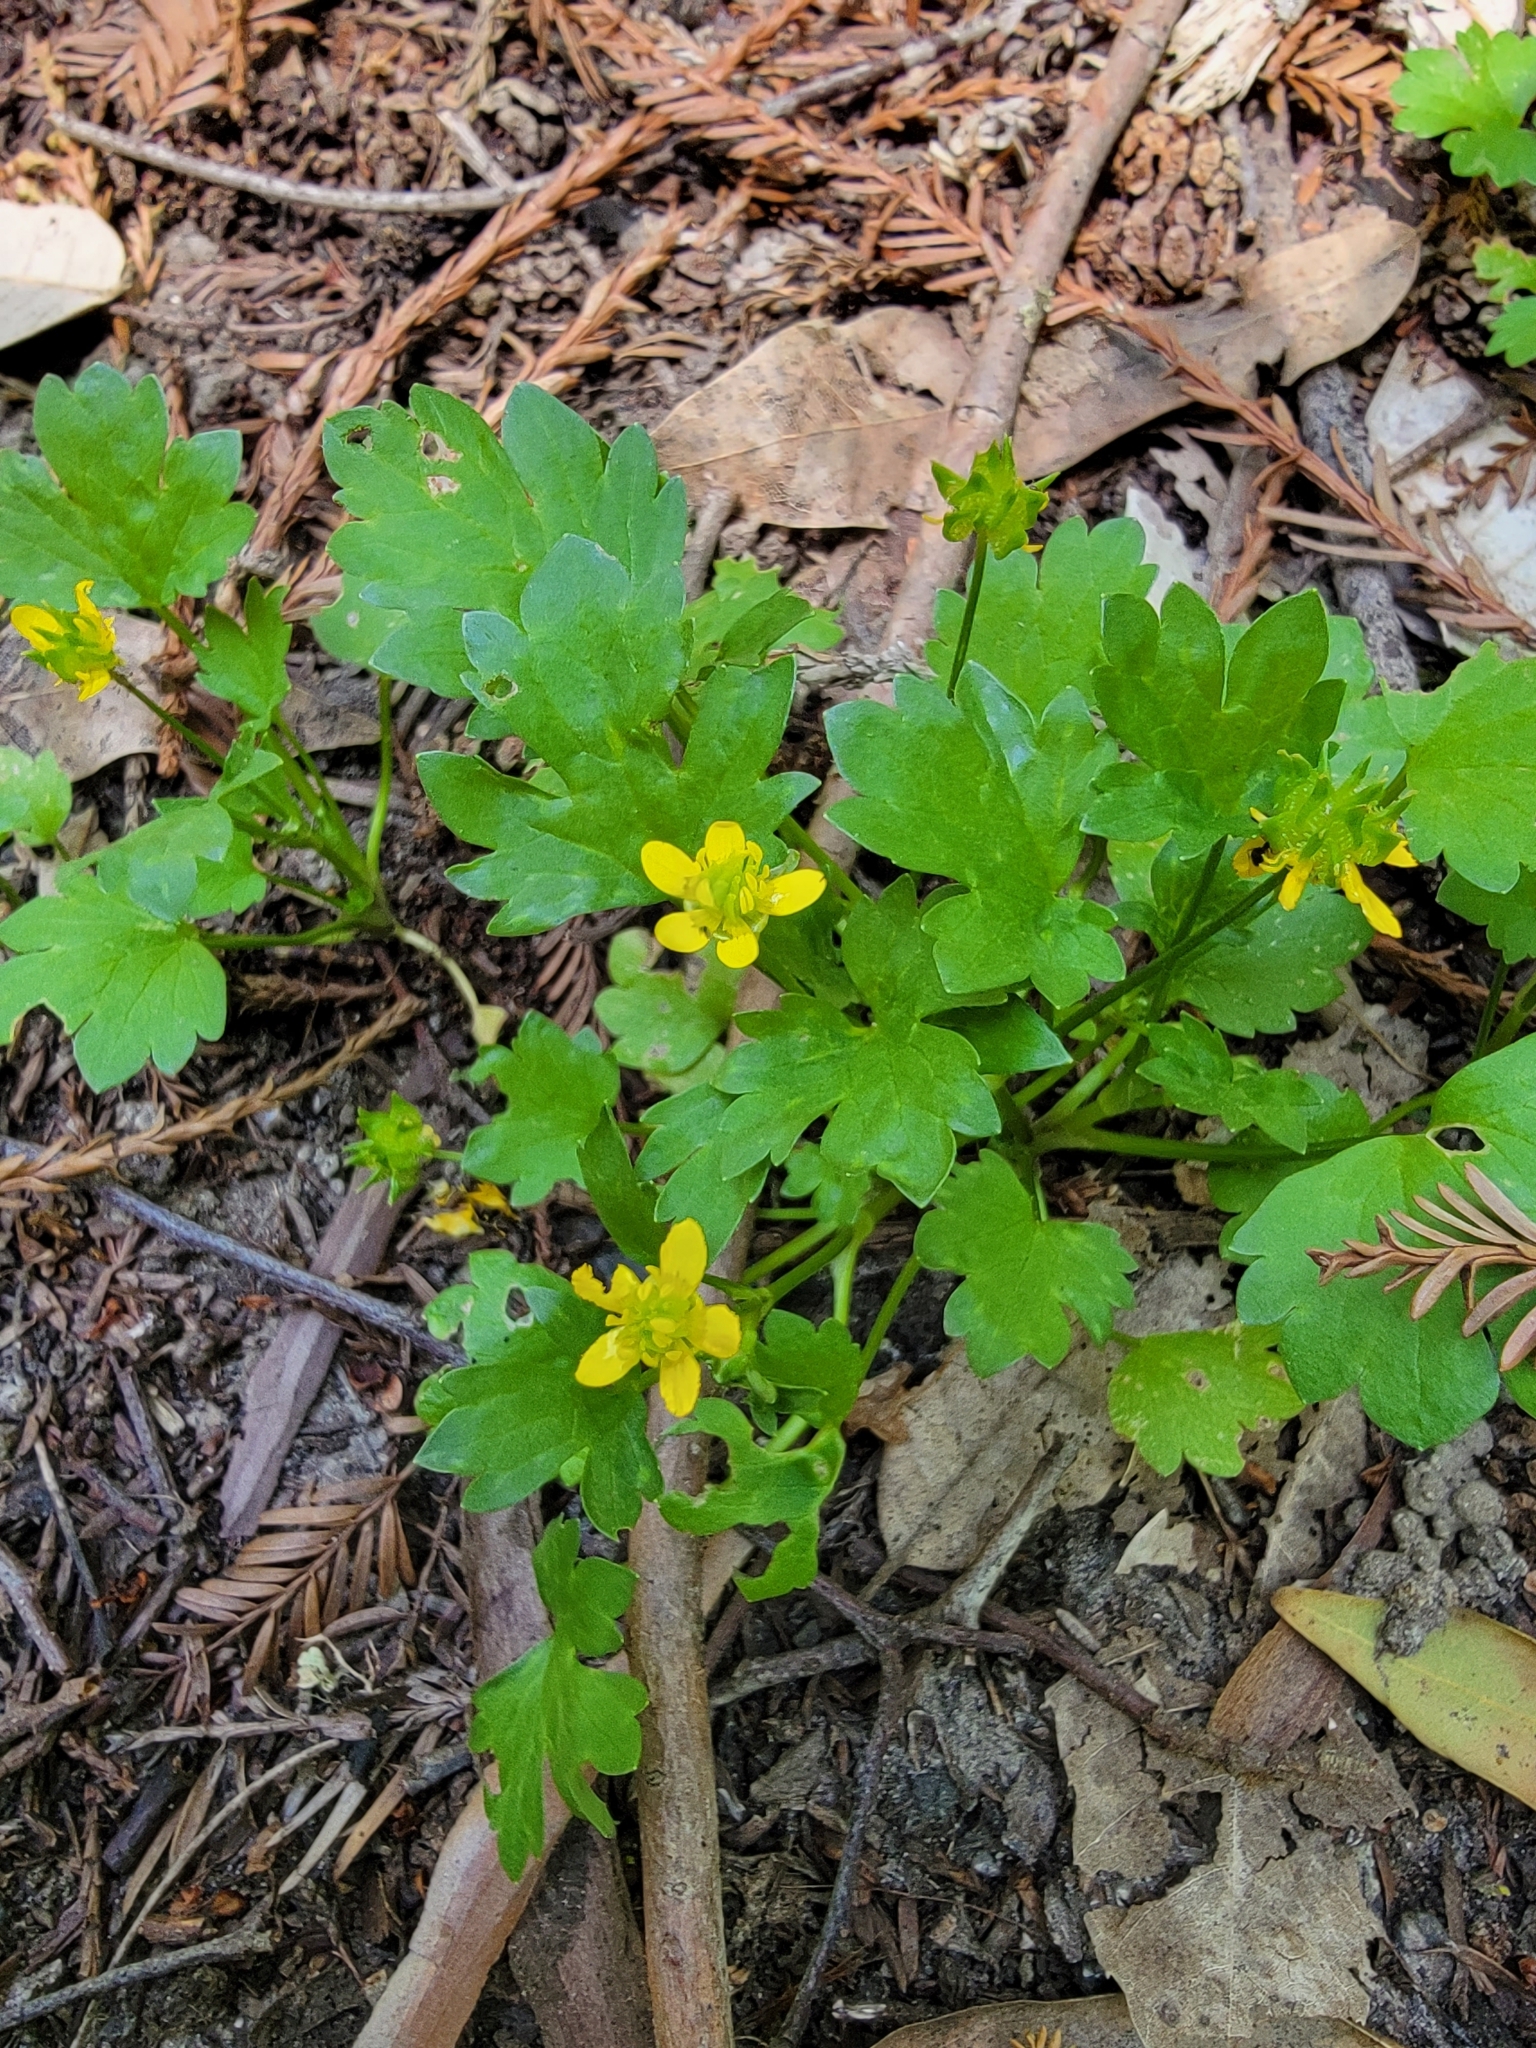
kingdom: Plantae
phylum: Tracheophyta
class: Magnoliopsida
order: Ranunculales
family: Ranunculaceae
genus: Ranunculus
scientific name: Ranunculus muricatus
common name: Rough-fruited buttercup
